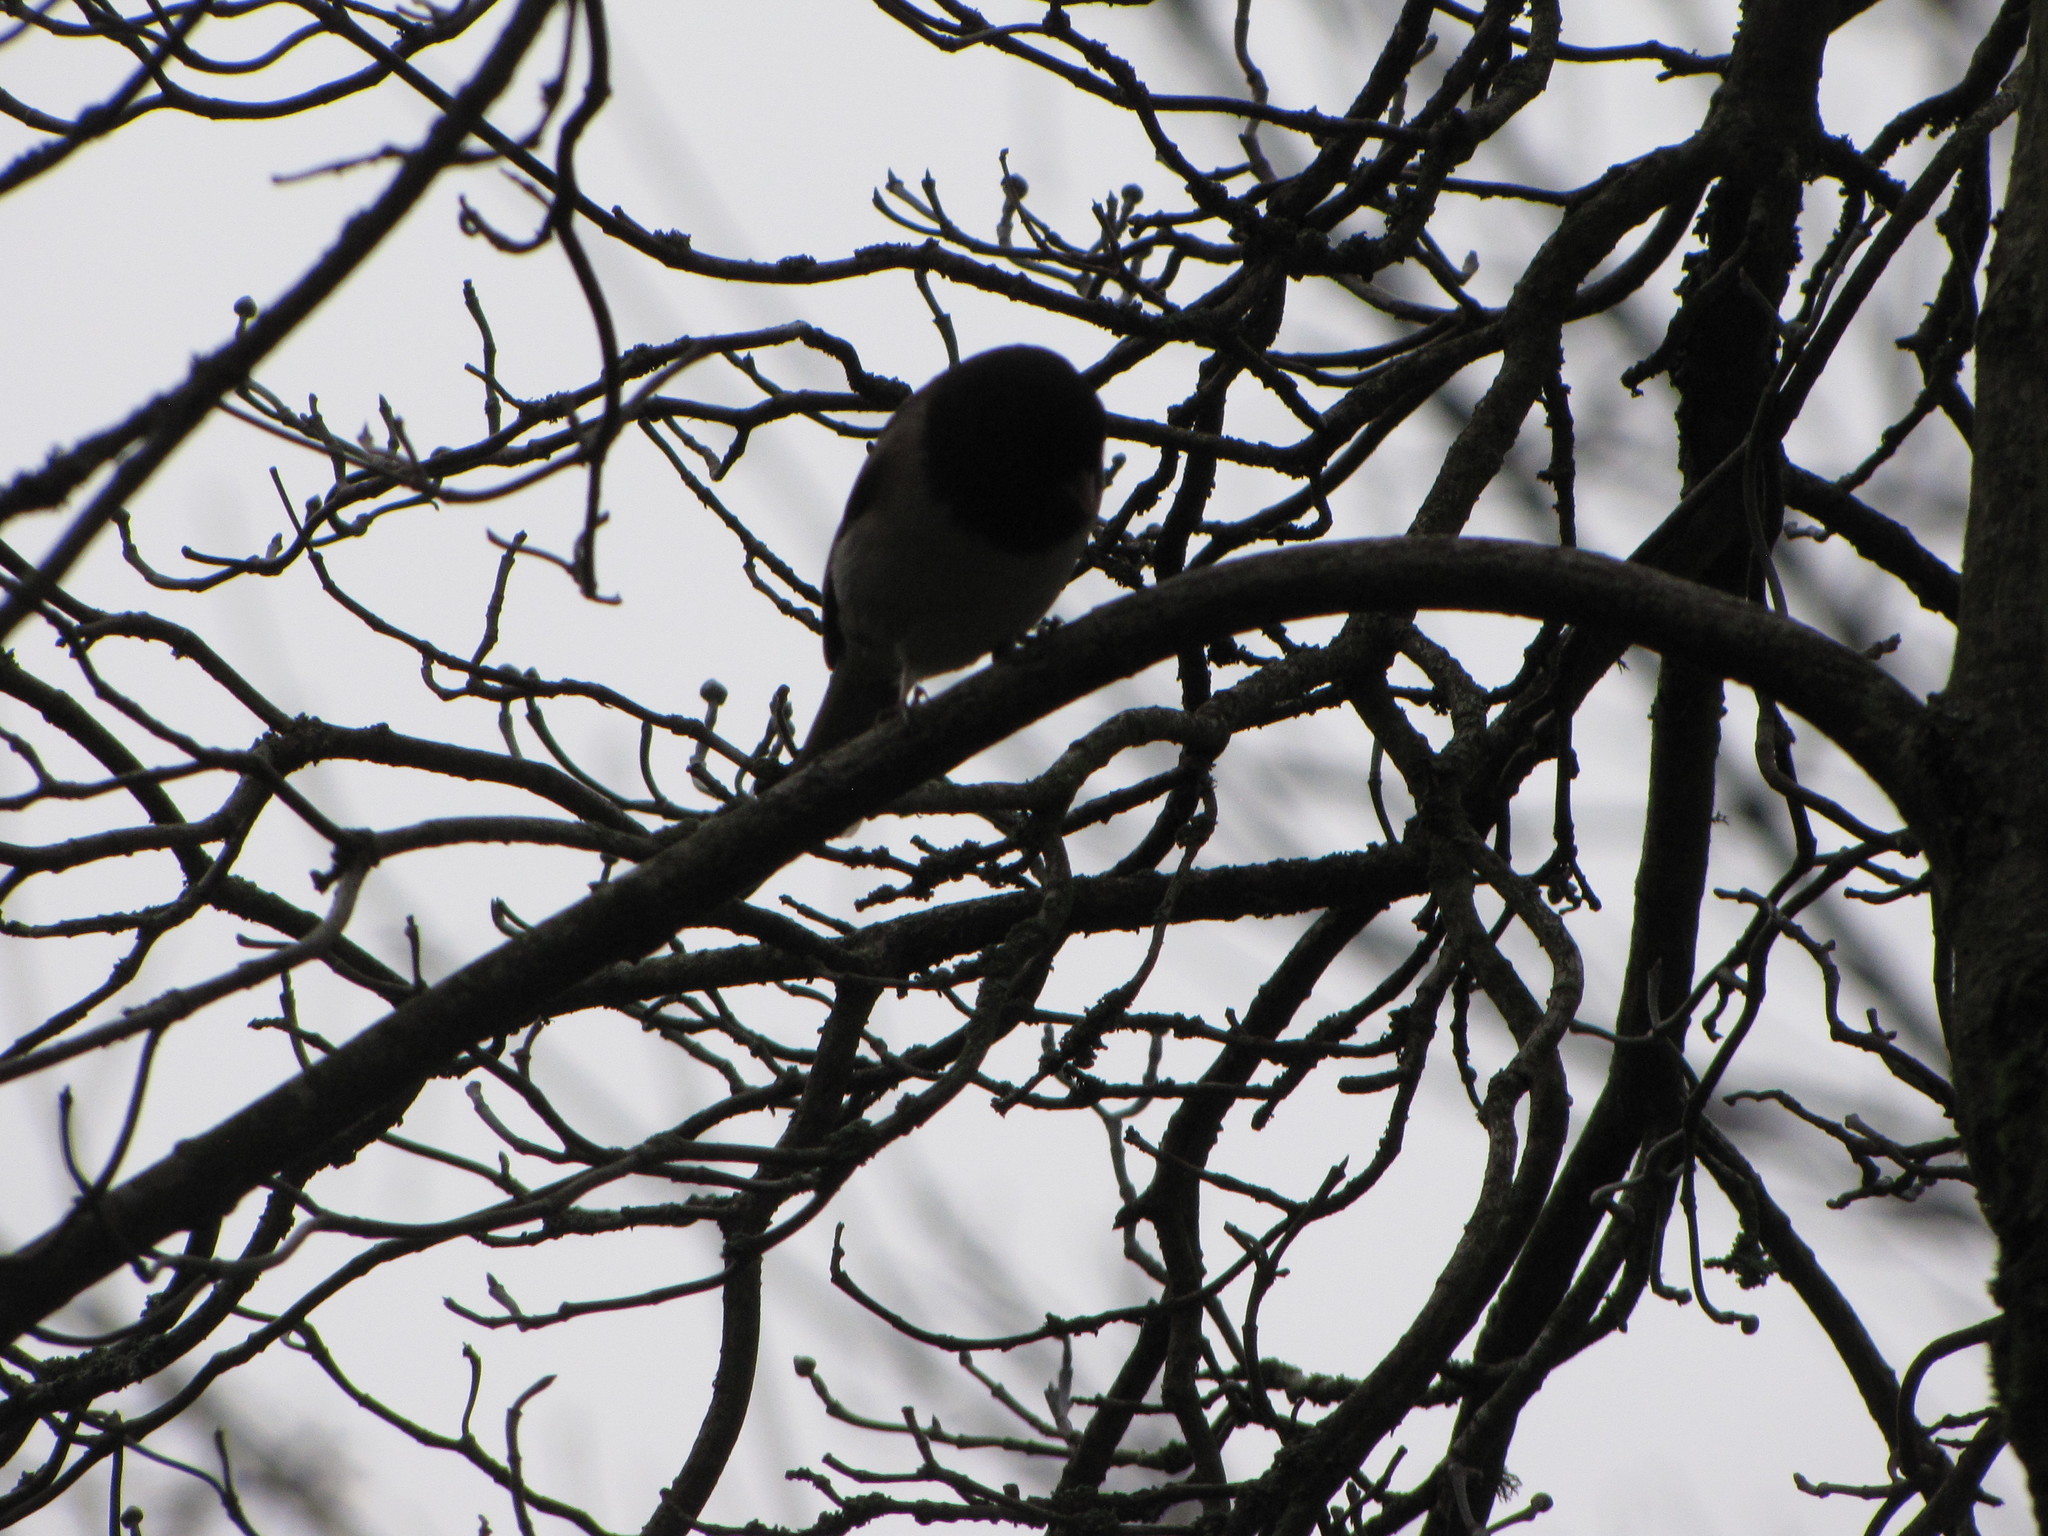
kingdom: Animalia
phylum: Chordata
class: Aves
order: Passeriformes
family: Passerellidae
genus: Junco
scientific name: Junco hyemalis
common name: Dark-eyed junco
